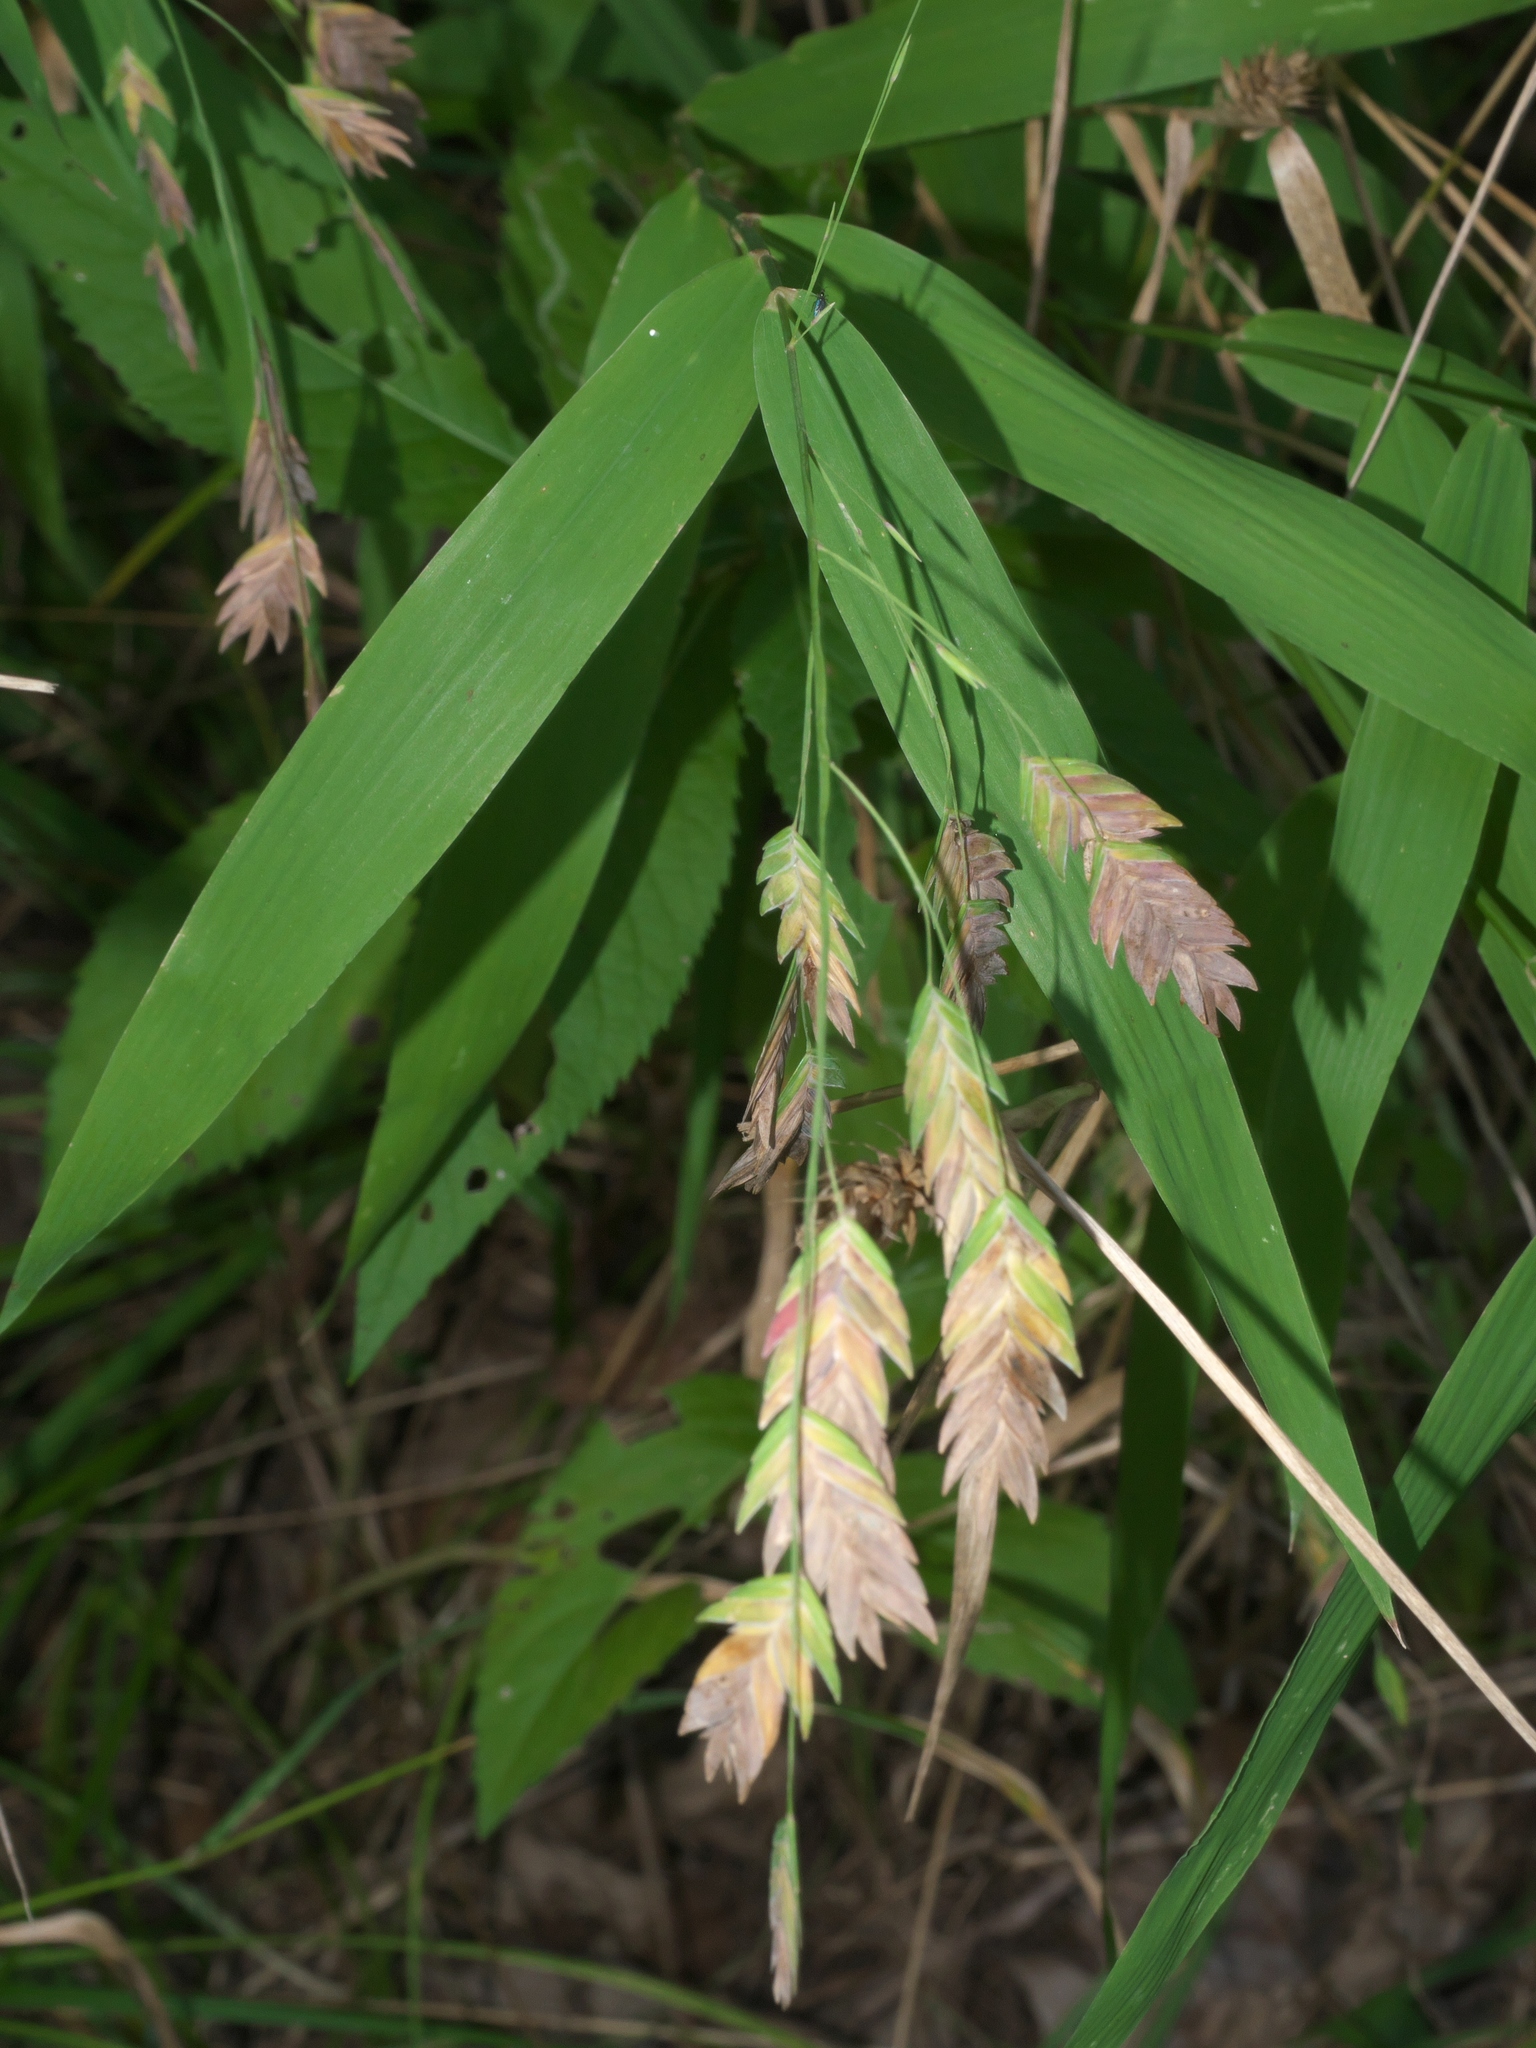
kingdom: Plantae
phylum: Tracheophyta
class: Liliopsida
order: Poales
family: Poaceae
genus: Chasmanthium
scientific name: Chasmanthium latifolium
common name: Broad-leaved chasmanthium
